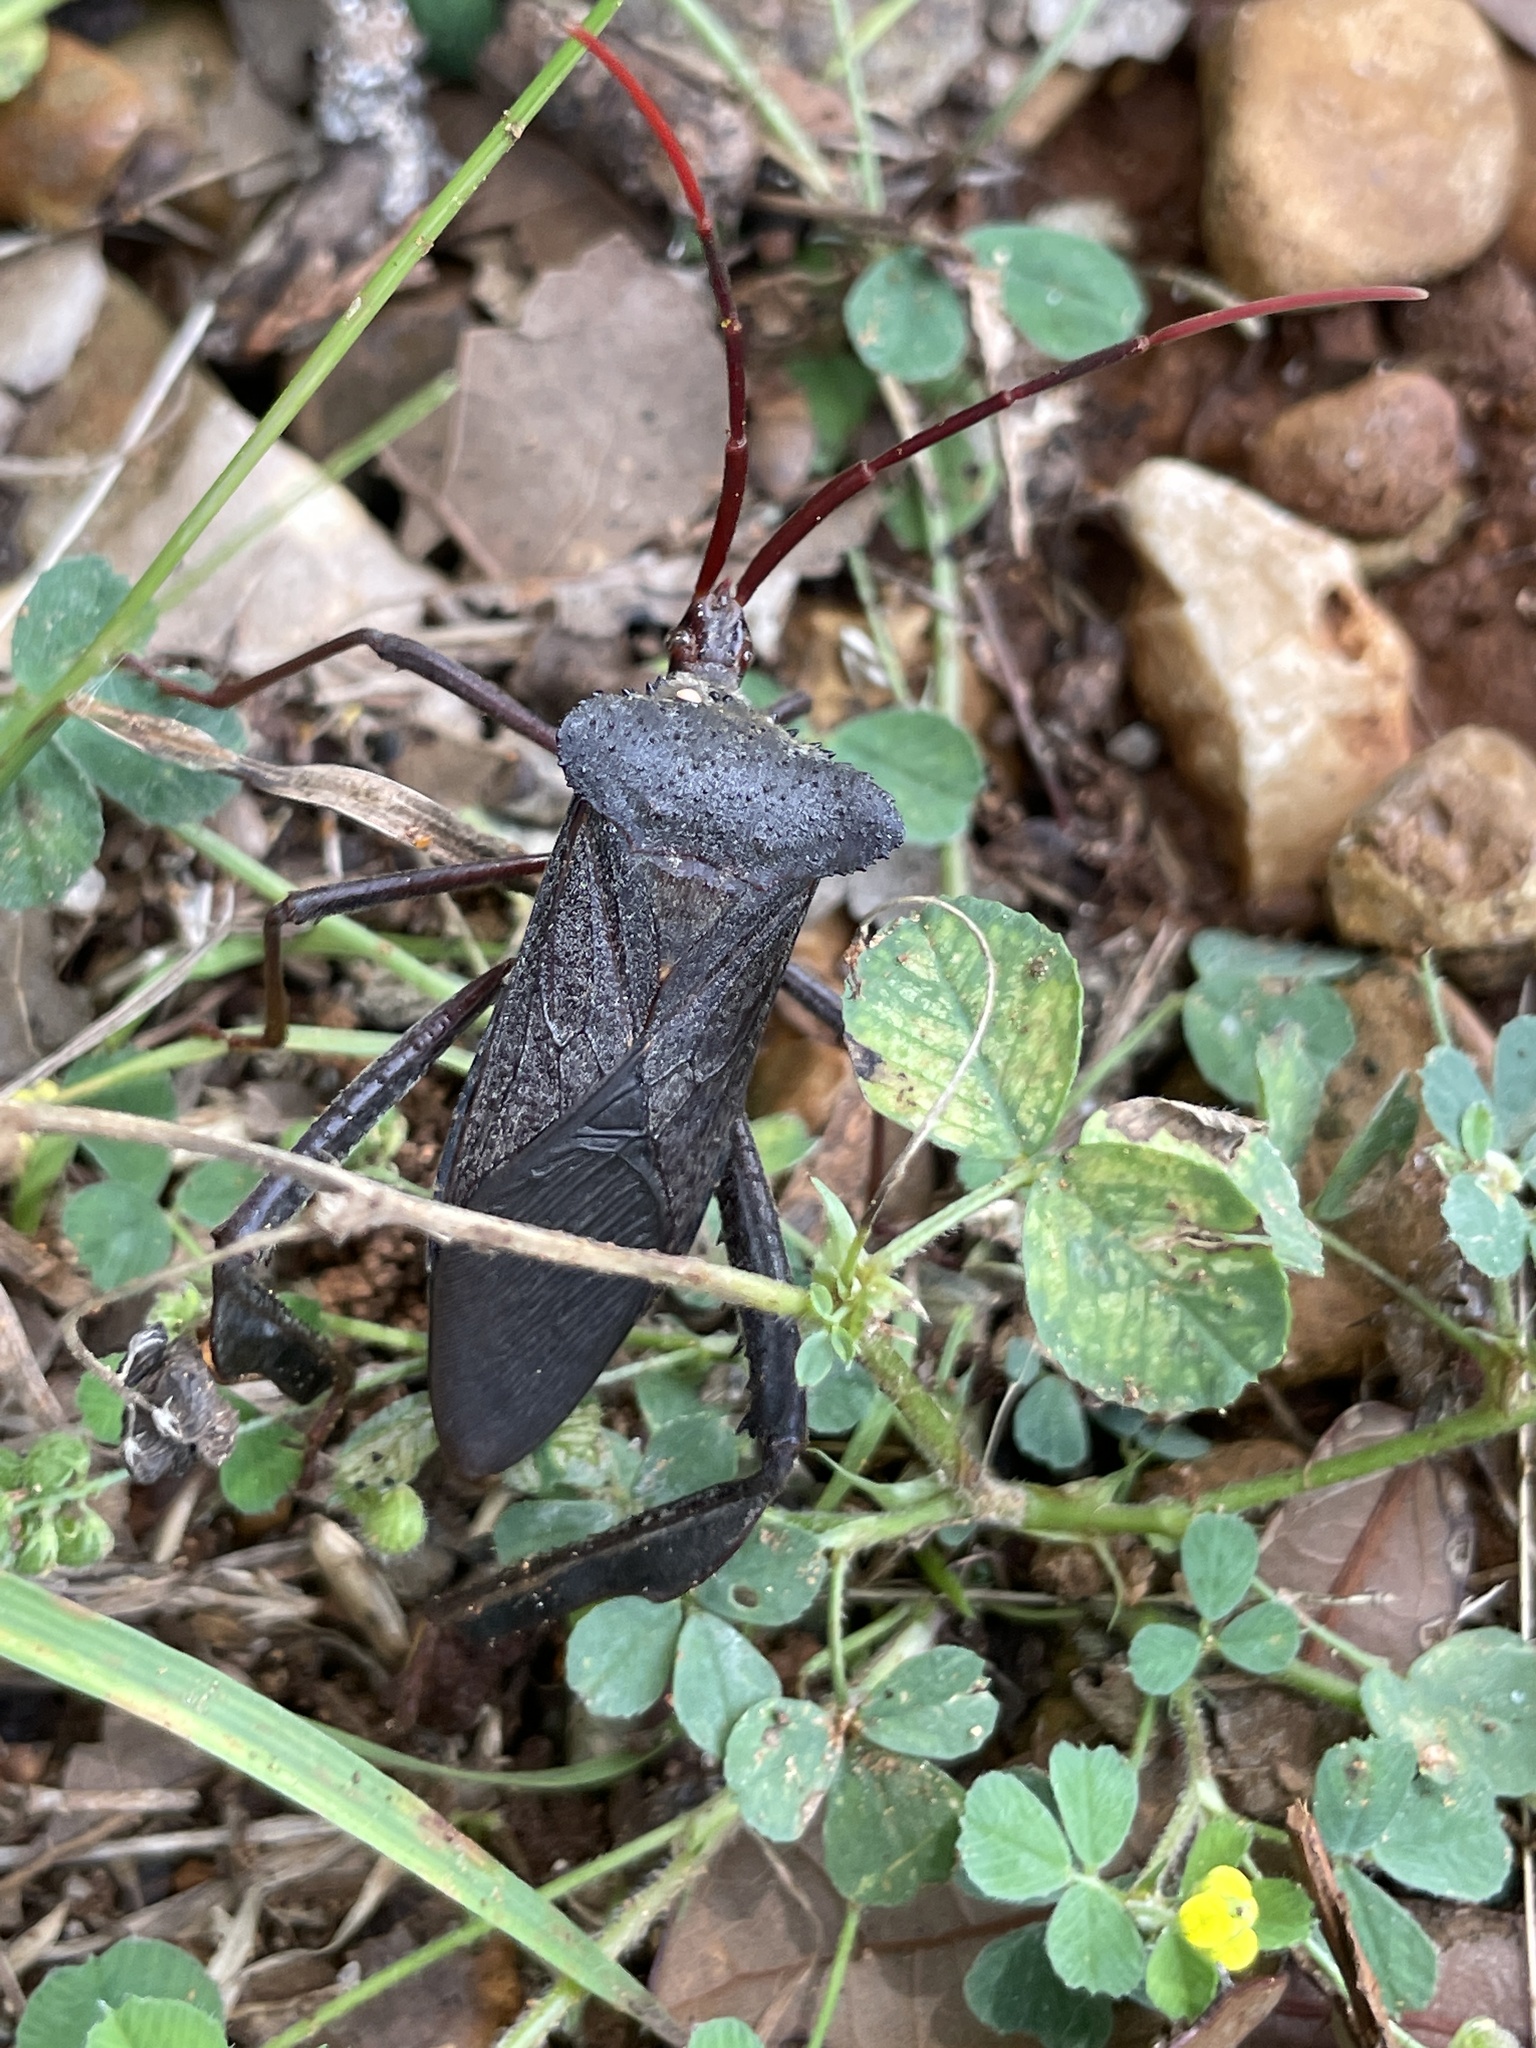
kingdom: Animalia
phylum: Arthropoda
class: Insecta
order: Hemiptera
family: Coreidae
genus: Acanthocephala
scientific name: Acanthocephala declivis
